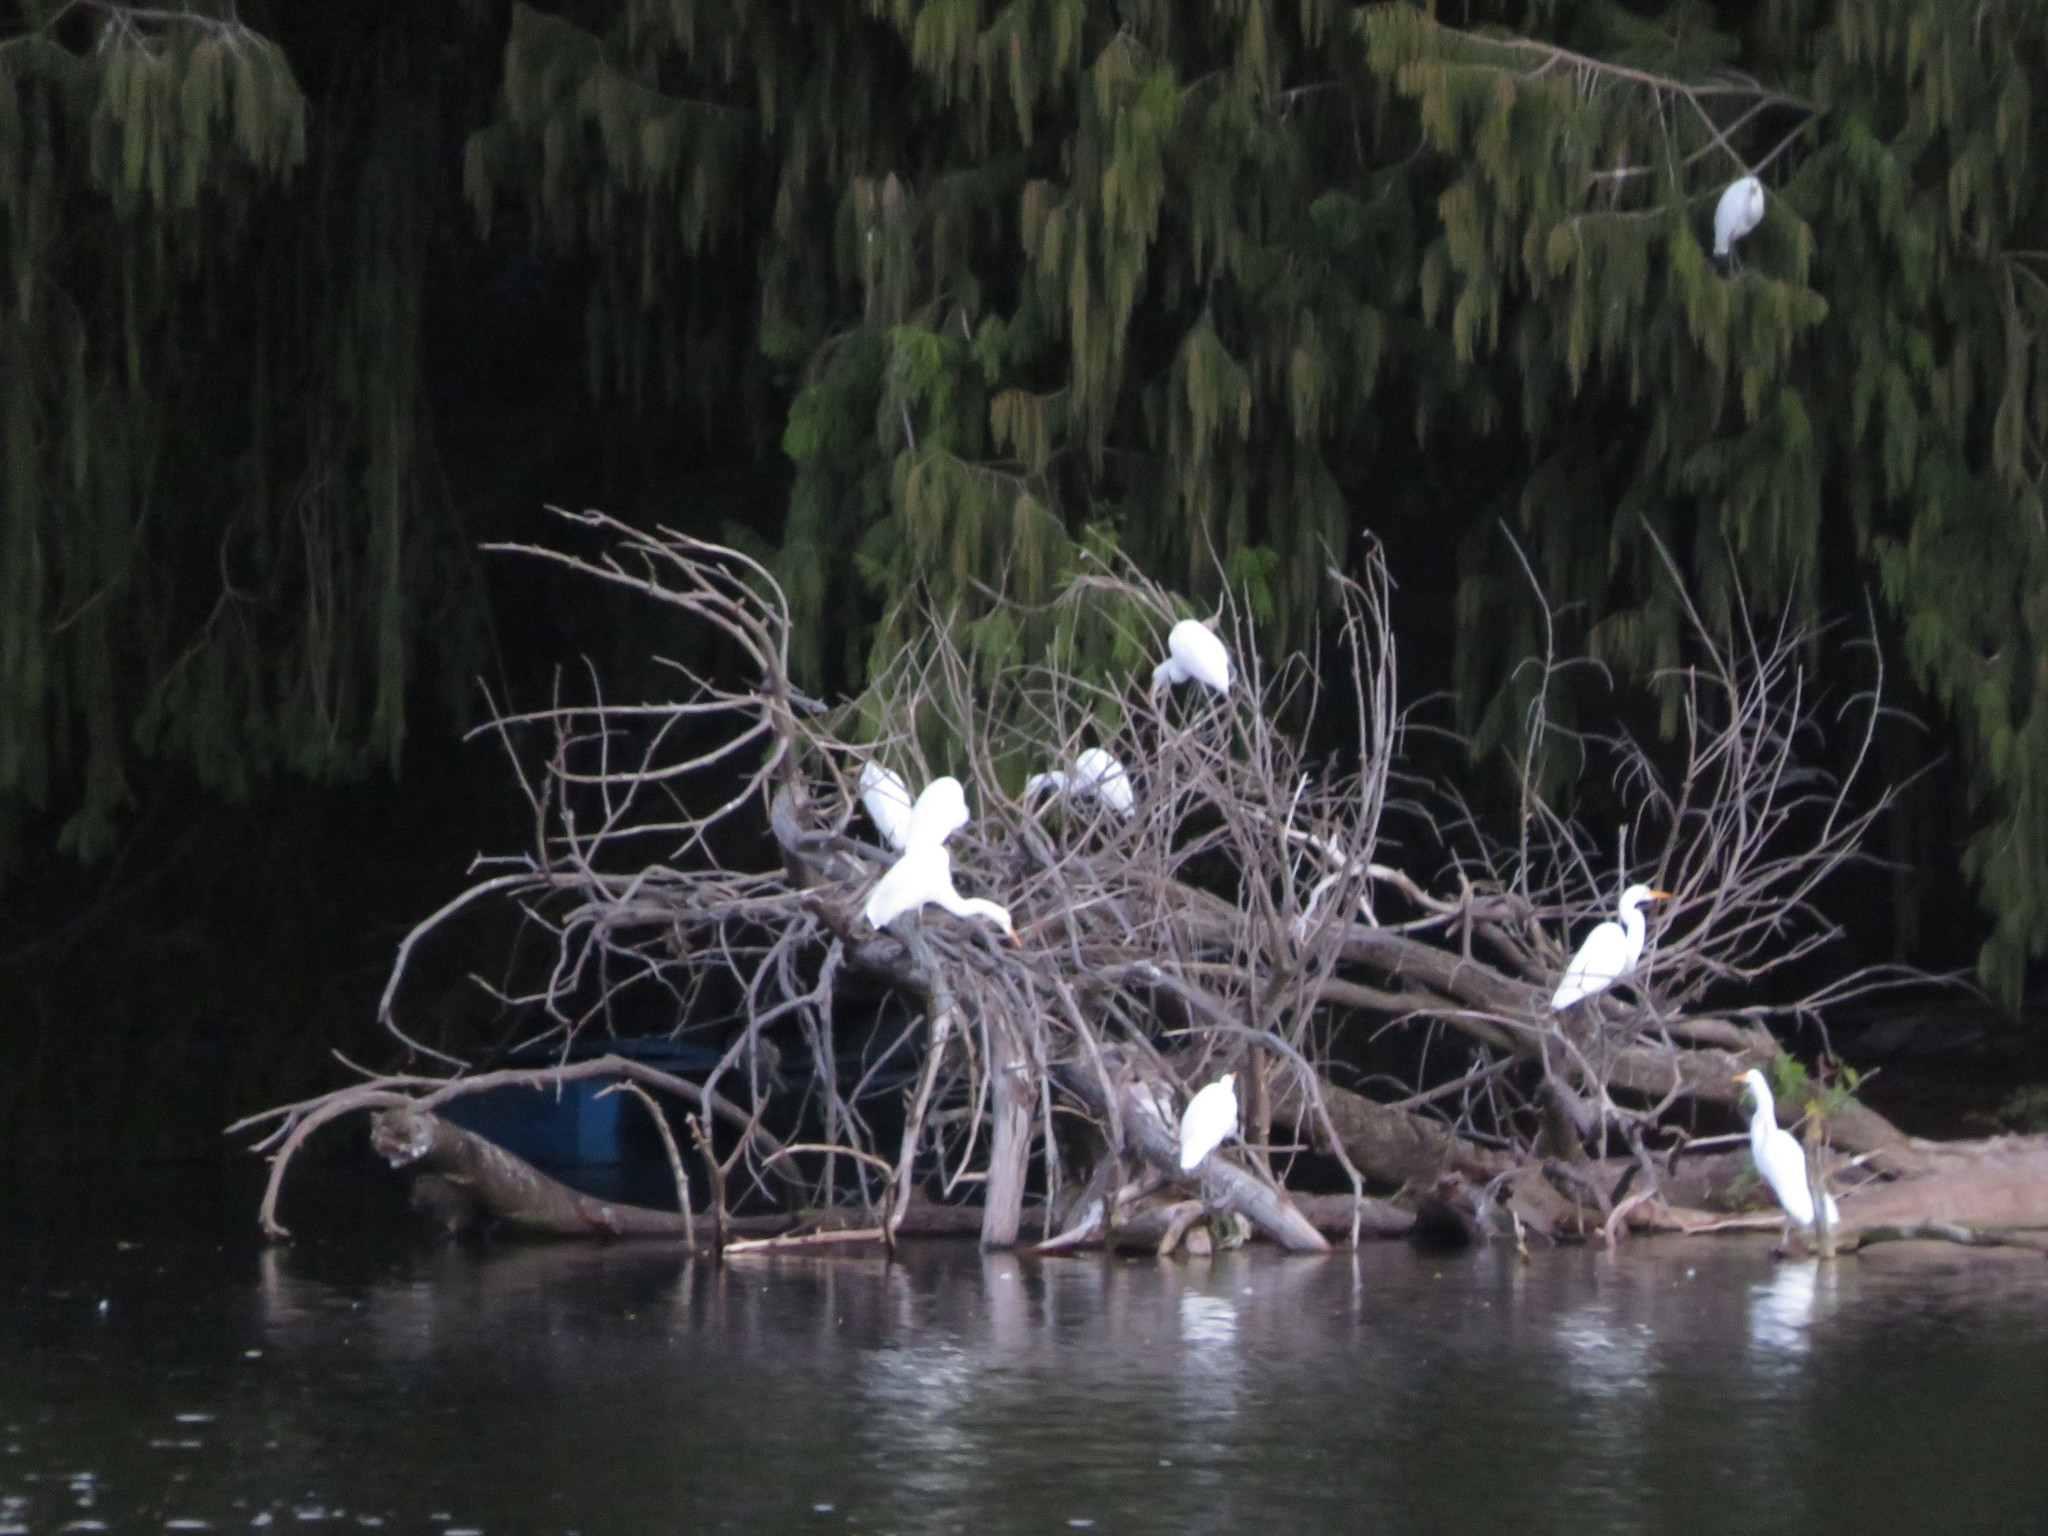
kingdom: Animalia
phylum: Chordata
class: Aves
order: Pelecaniformes
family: Ardeidae
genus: Ardea
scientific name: Ardea alba
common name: Great egret
